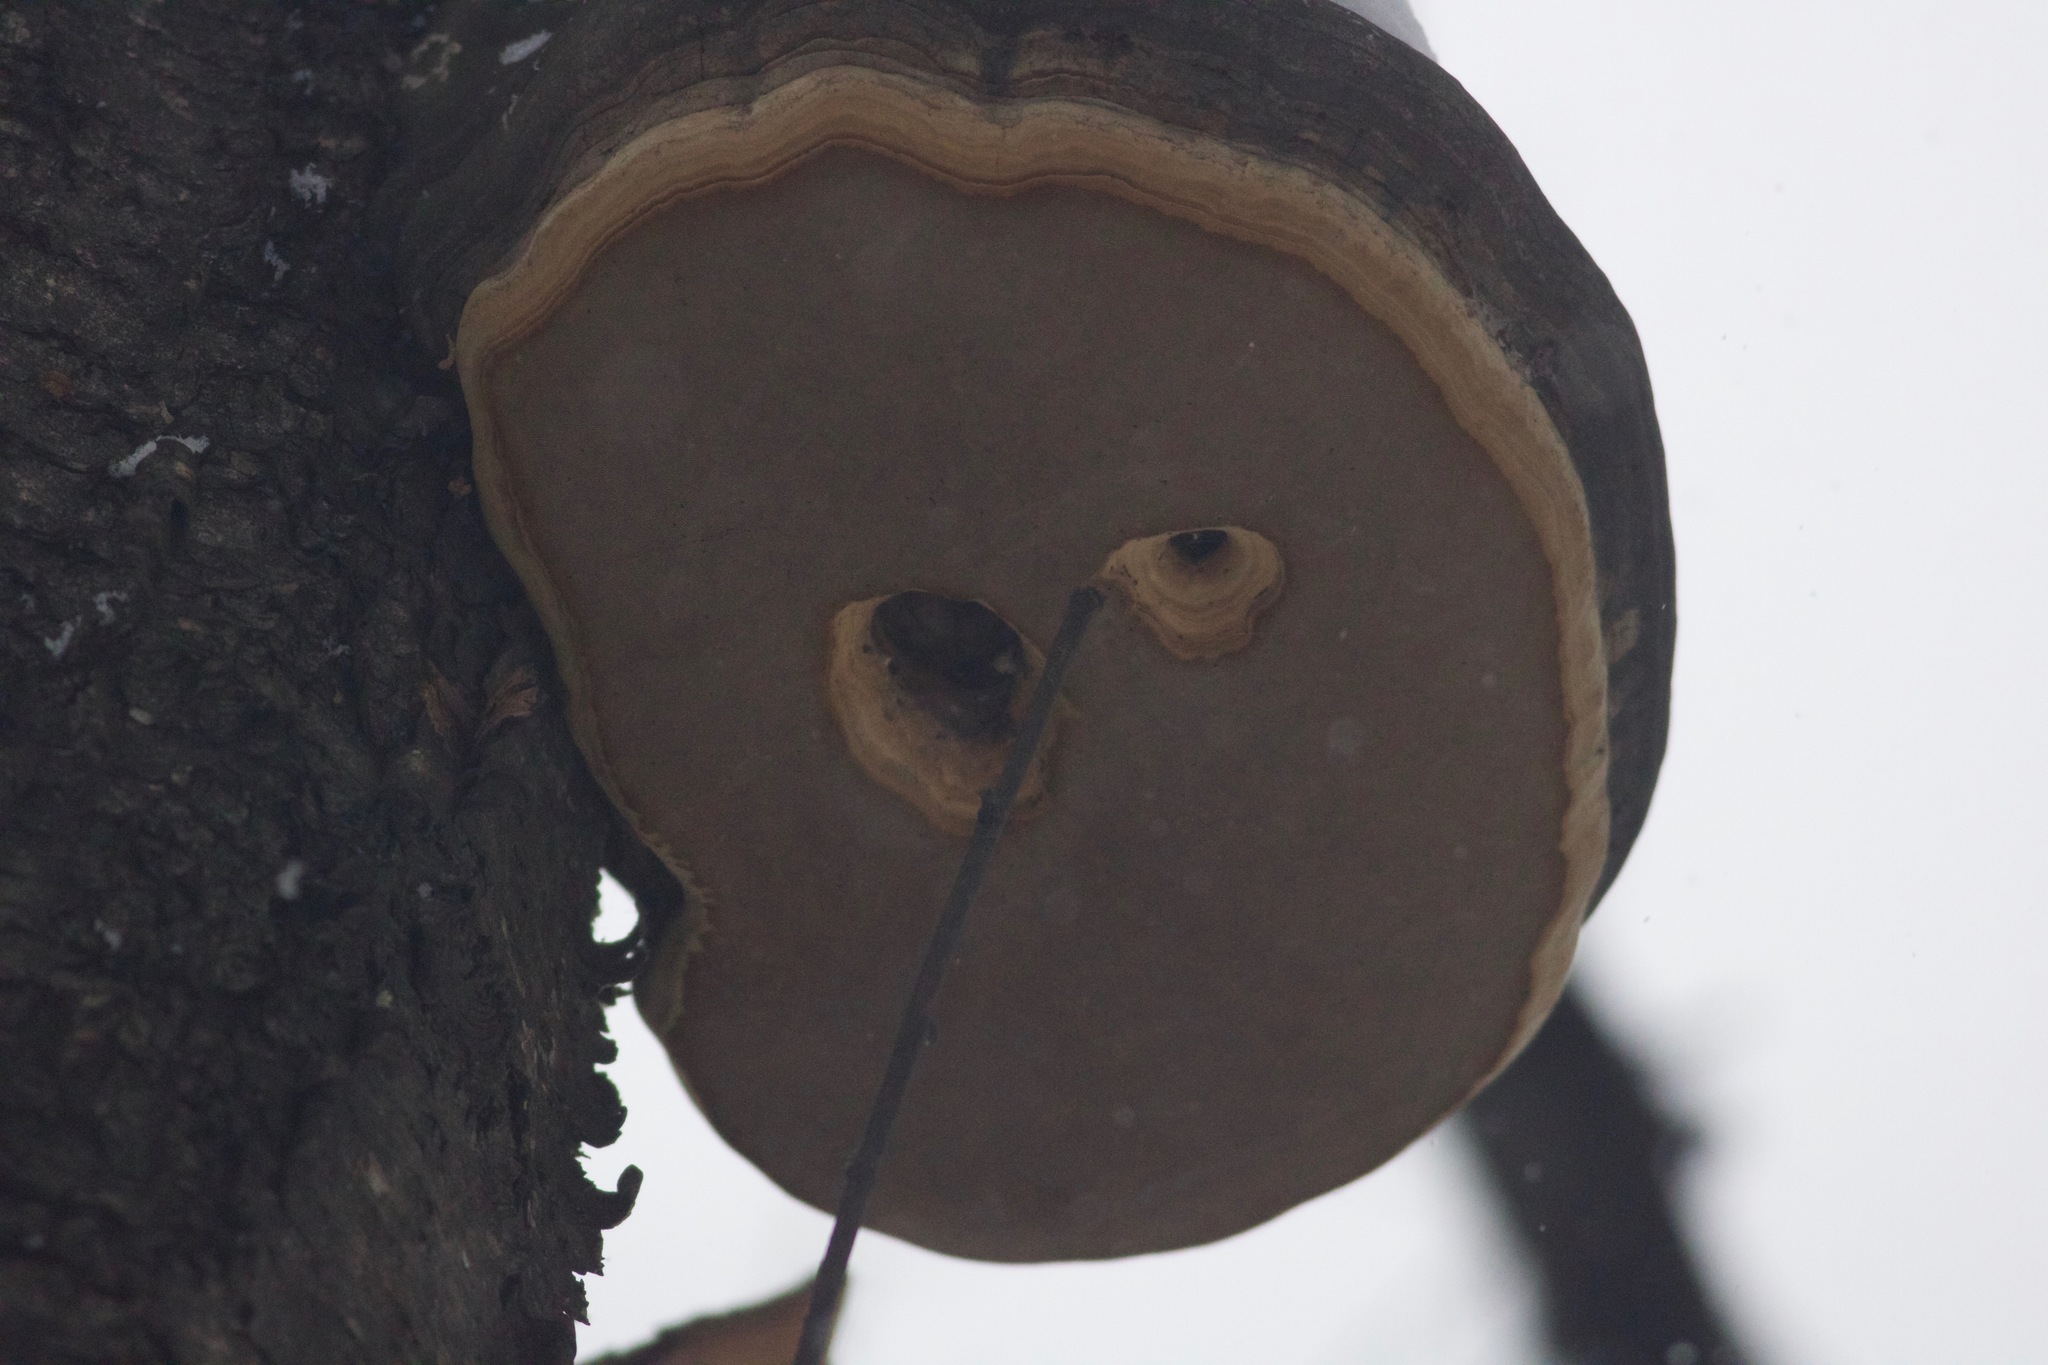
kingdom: Fungi
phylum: Basidiomycota
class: Agaricomycetes
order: Polyporales
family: Polyporaceae
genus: Fomes
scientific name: Fomes fomentarius
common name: Hoof fungus
